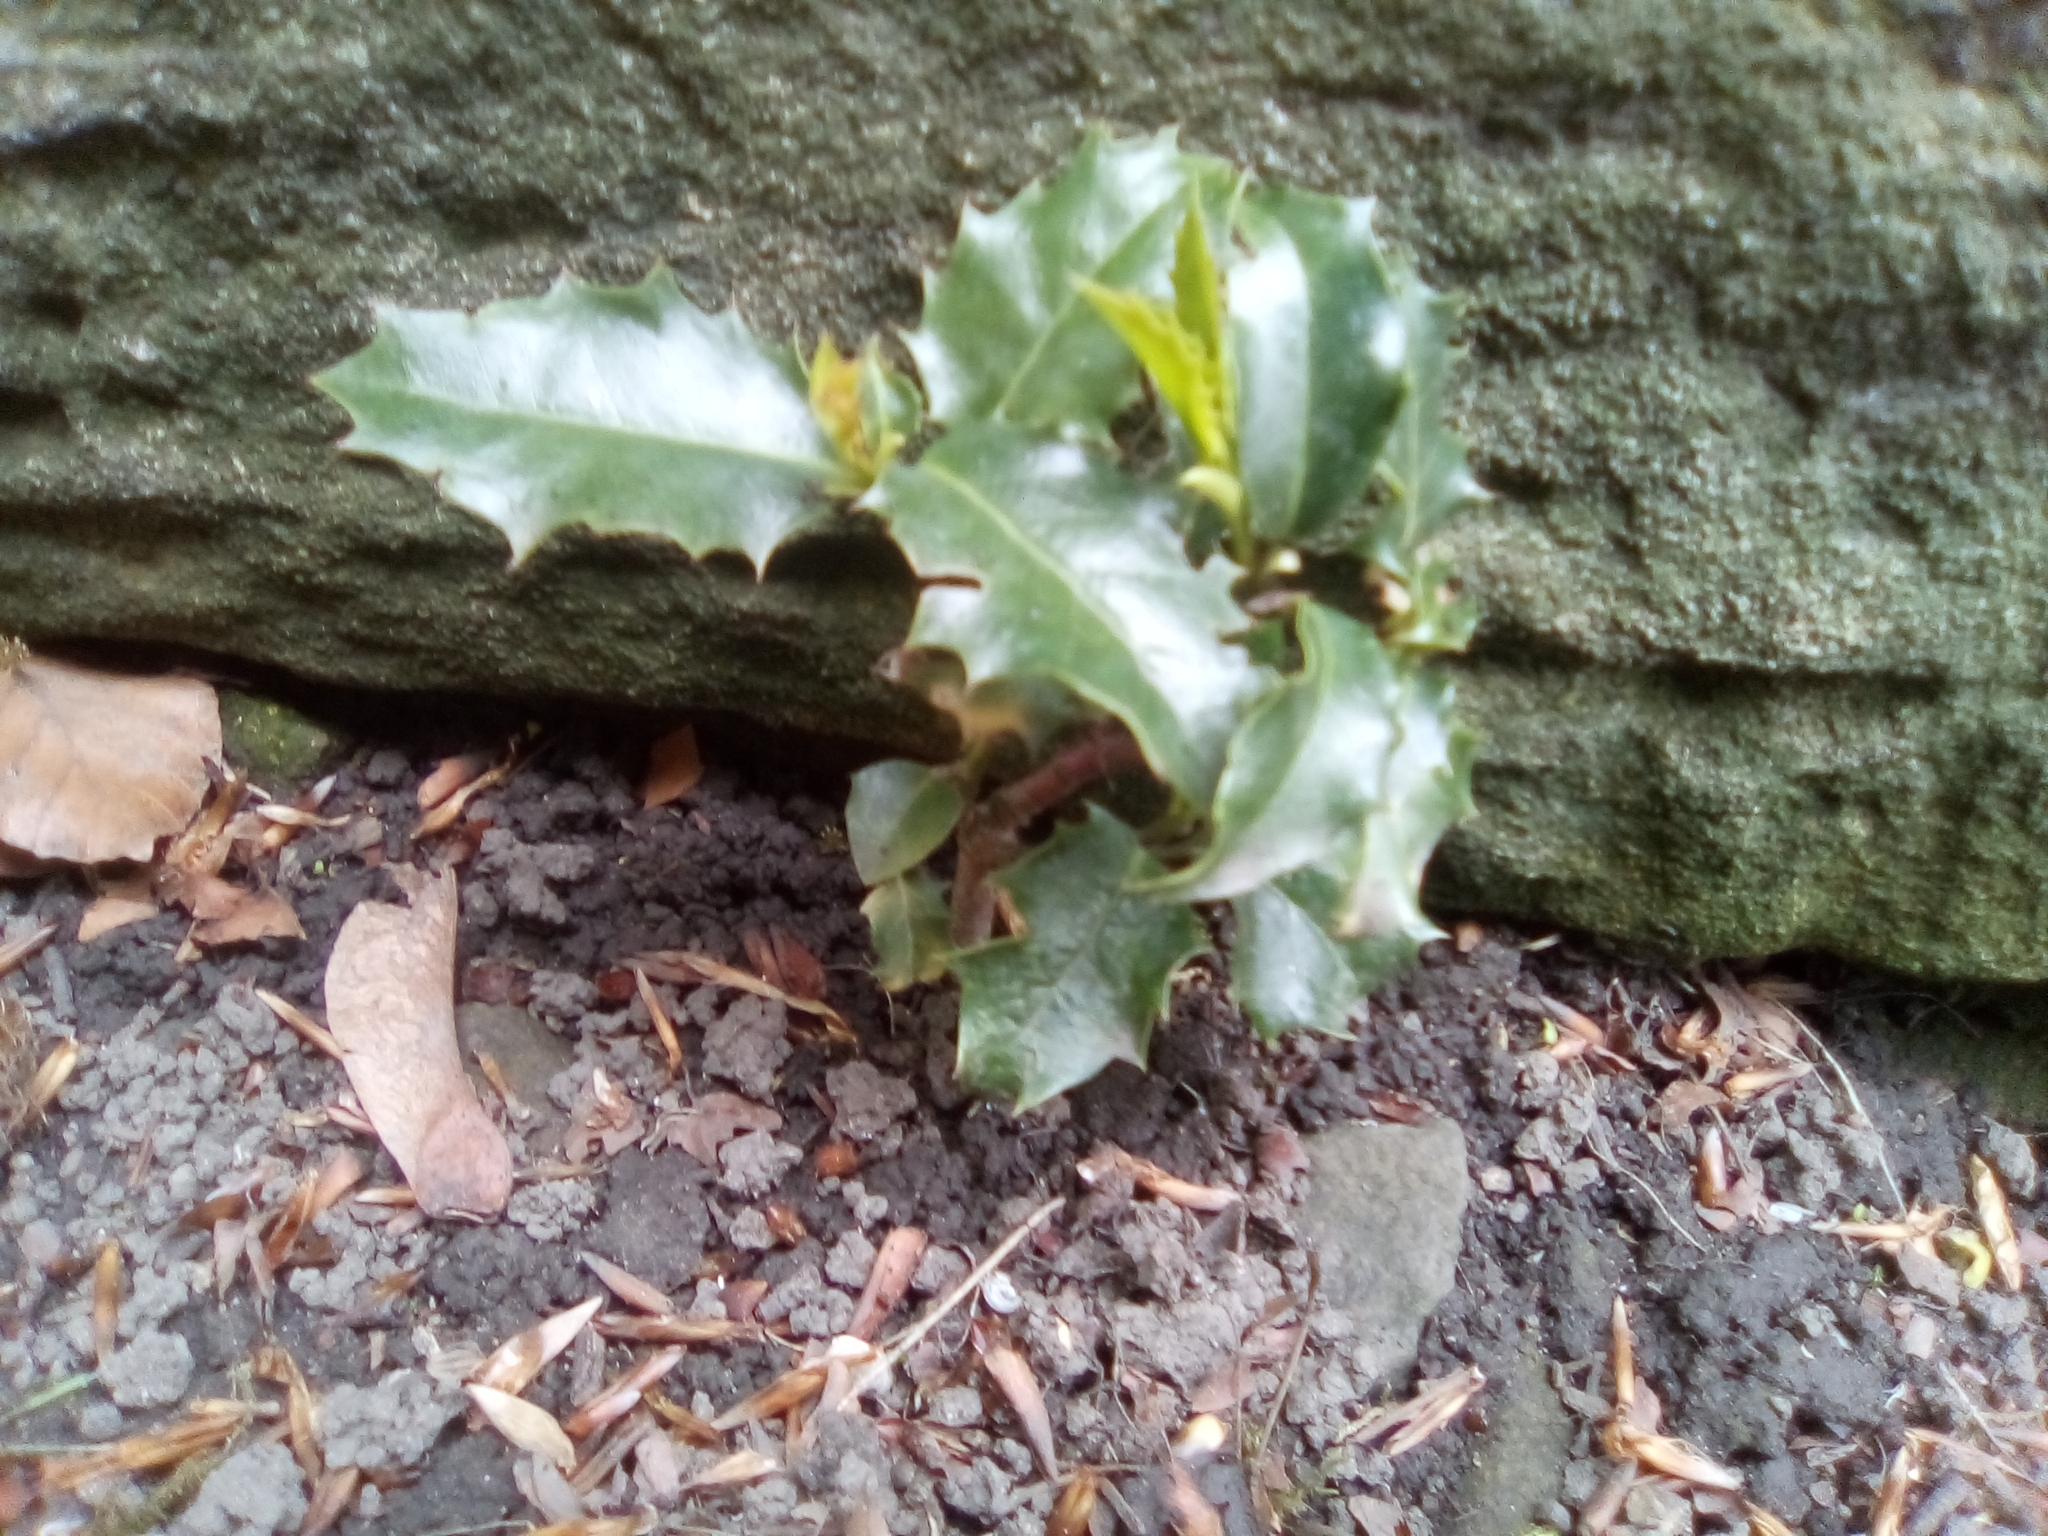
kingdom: Plantae
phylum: Tracheophyta
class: Magnoliopsida
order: Aquifoliales
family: Aquifoliaceae
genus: Ilex
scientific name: Ilex aquifolium
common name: English holly
